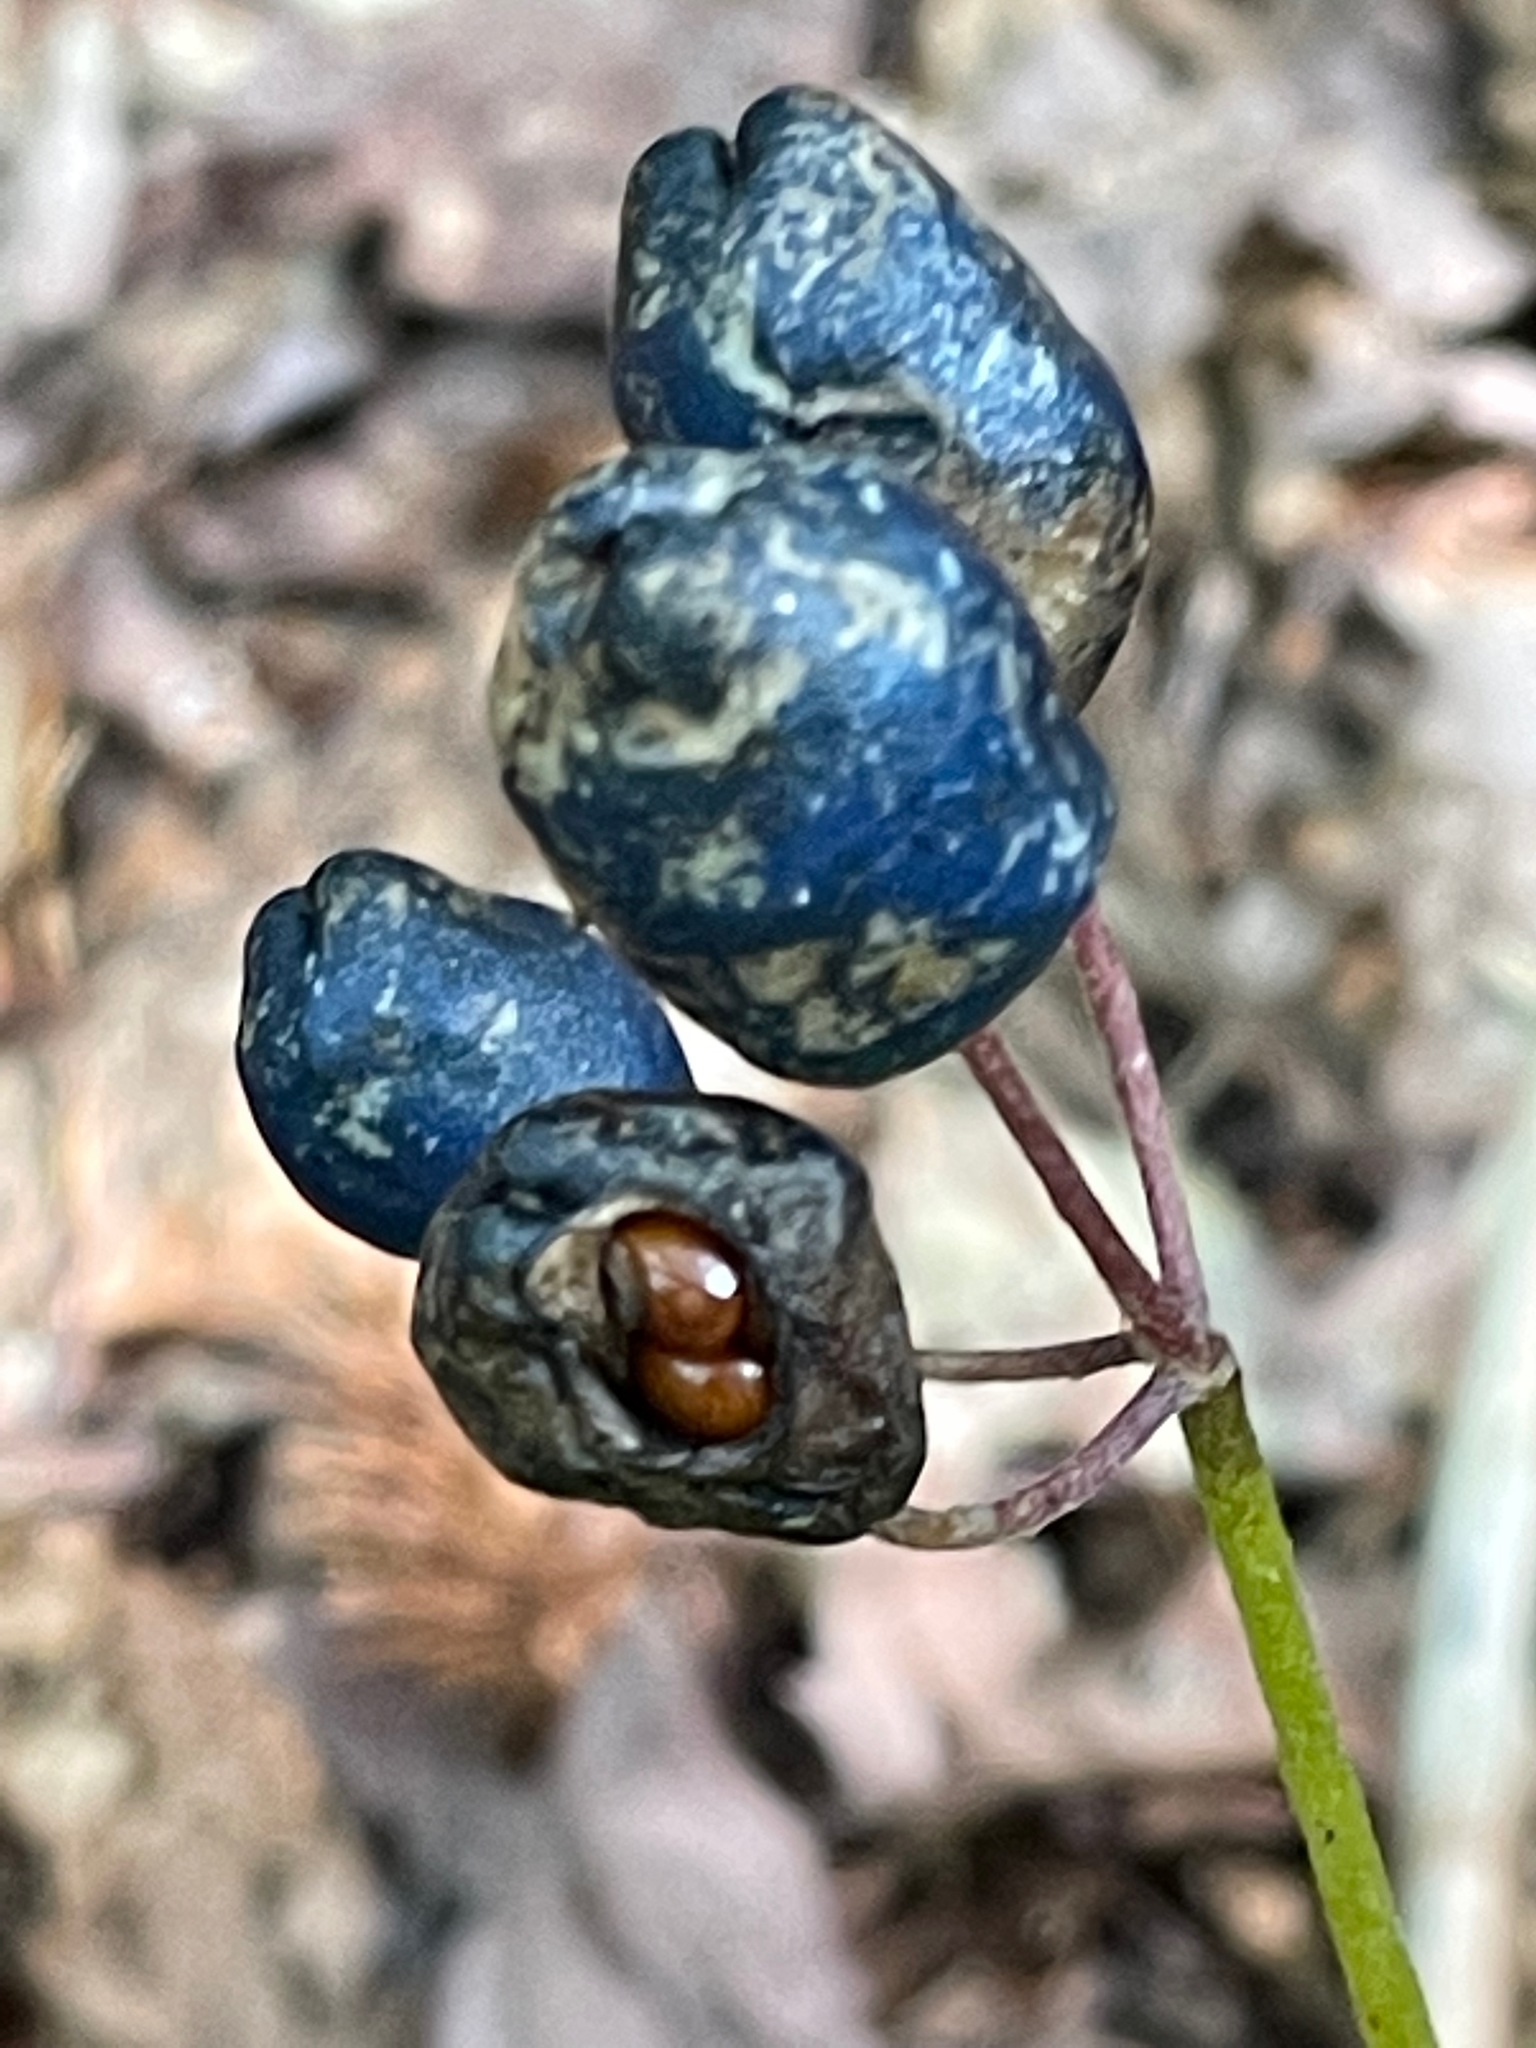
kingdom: Plantae
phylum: Tracheophyta
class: Liliopsida
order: Liliales
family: Liliaceae
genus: Clintonia
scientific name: Clintonia borealis
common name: Yellow clintonia
